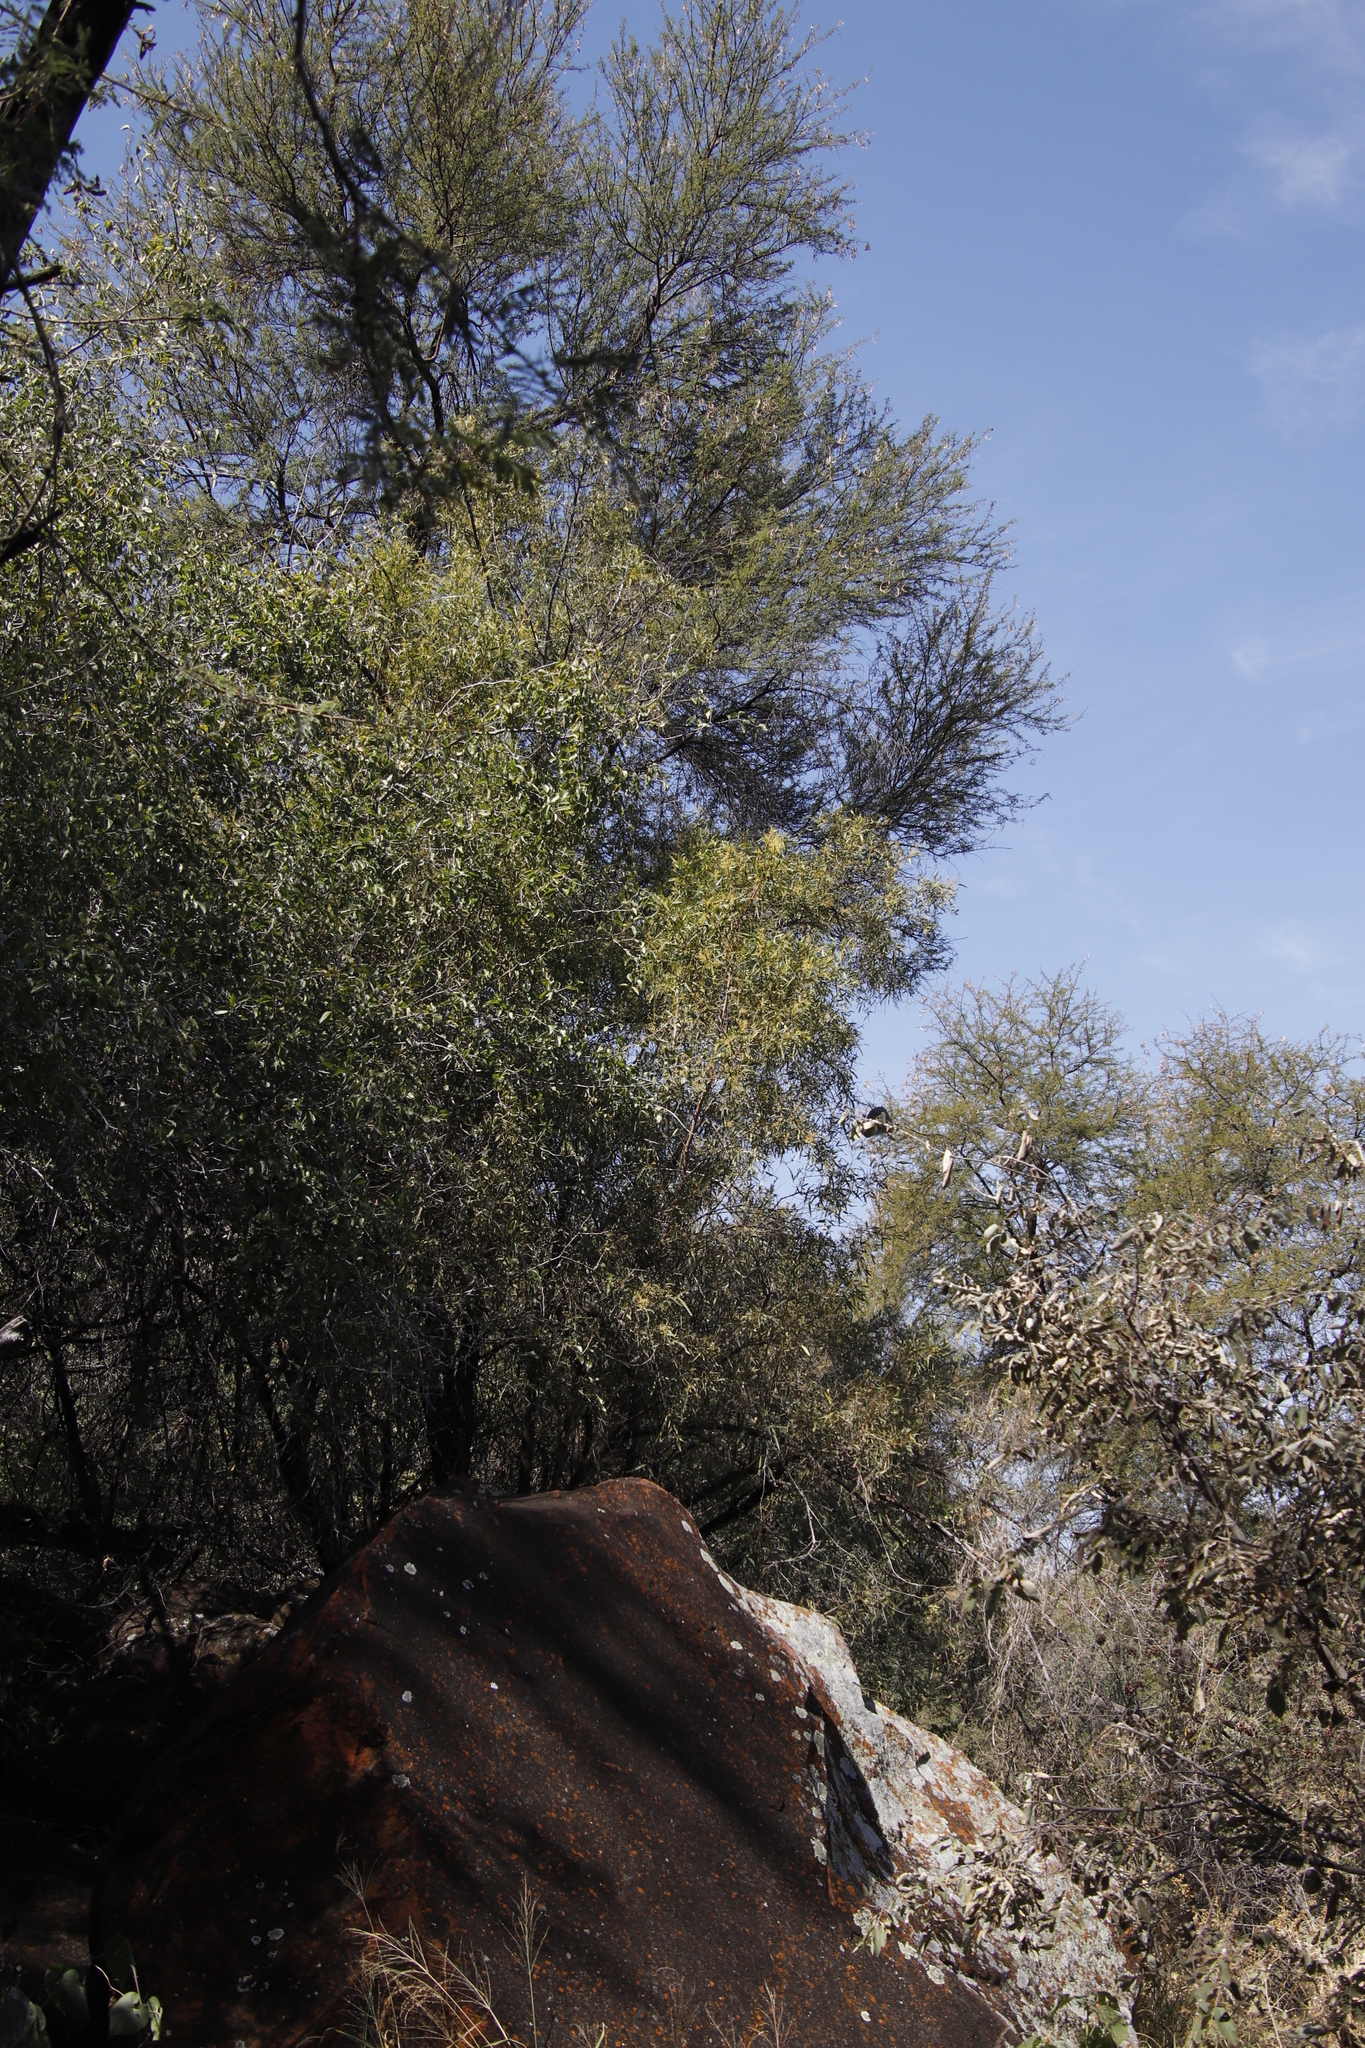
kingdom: Plantae
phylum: Tracheophyta
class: Magnoliopsida
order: Sapindales
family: Anacardiaceae
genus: Searsia
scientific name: Searsia lancea
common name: Cashew
